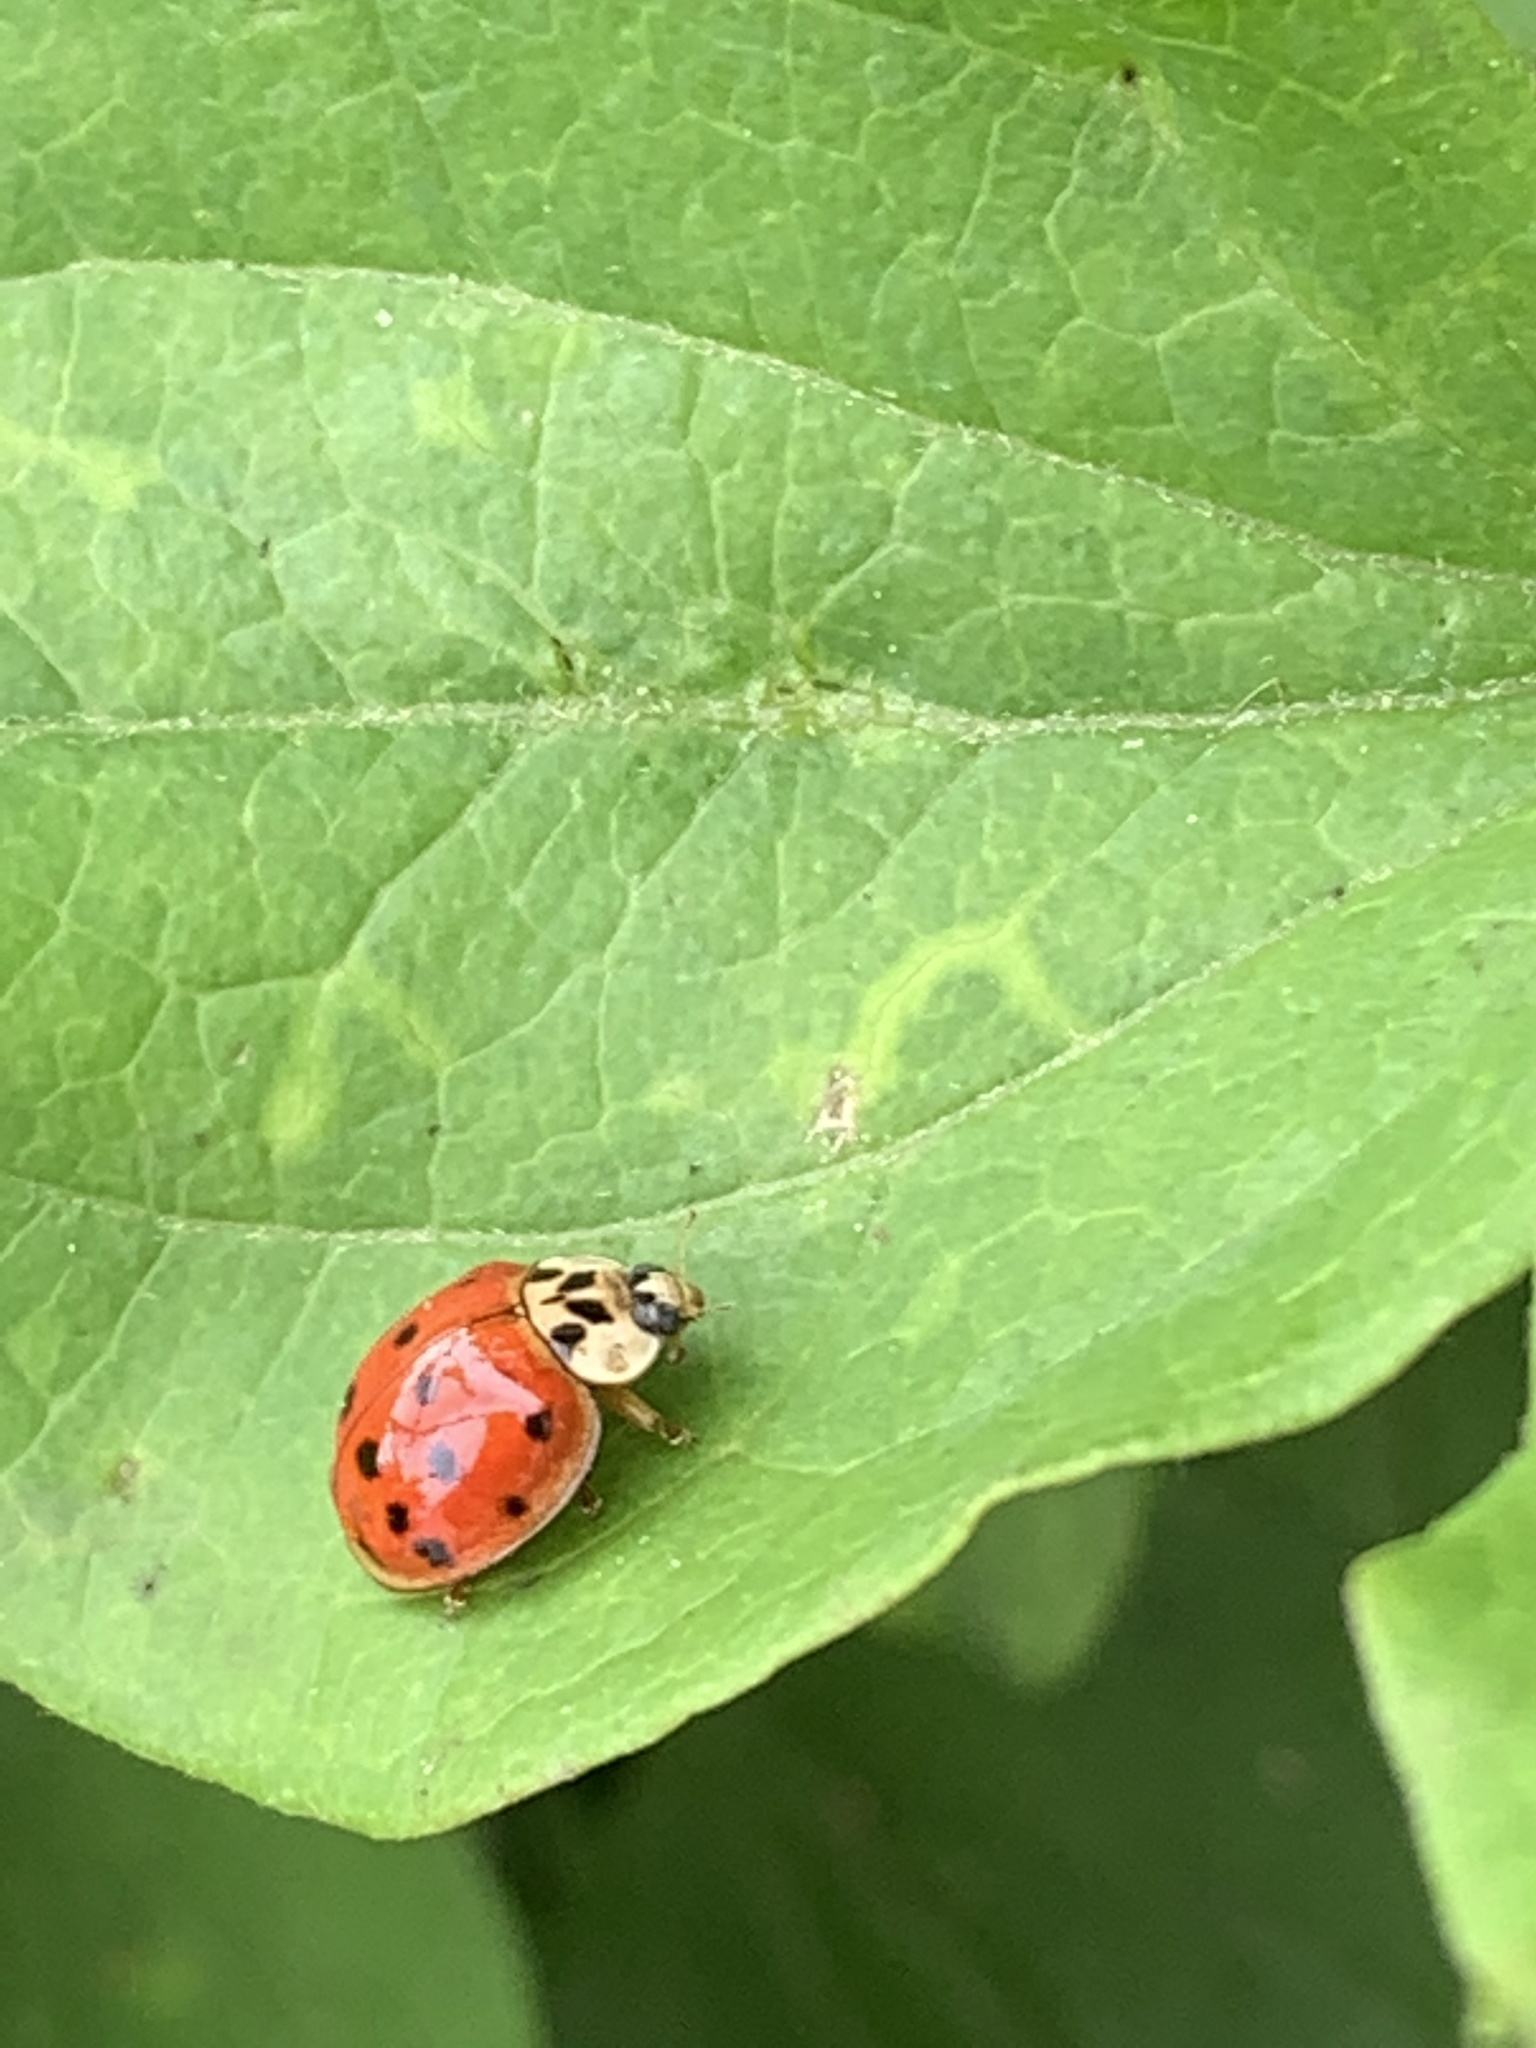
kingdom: Animalia
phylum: Arthropoda
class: Insecta
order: Coleoptera
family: Coccinellidae
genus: Harmonia
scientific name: Harmonia axyridis
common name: Harlequin ladybird
